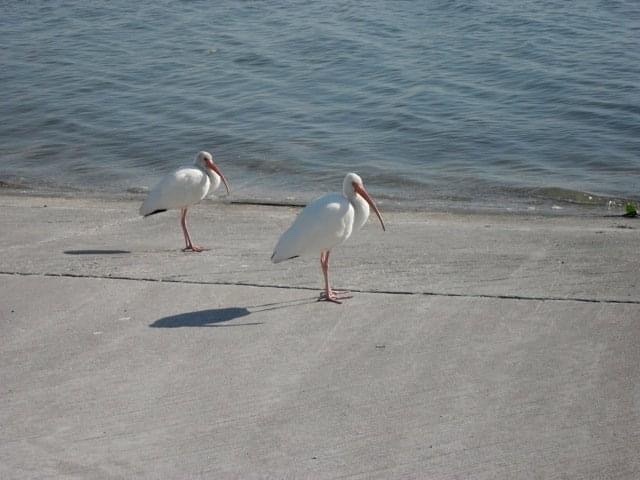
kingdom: Animalia
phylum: Chordata
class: Aves
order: Pelecaniformes
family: Threskiornithidae
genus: Eudocimus
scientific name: Eudocimus albus
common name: White ibis
